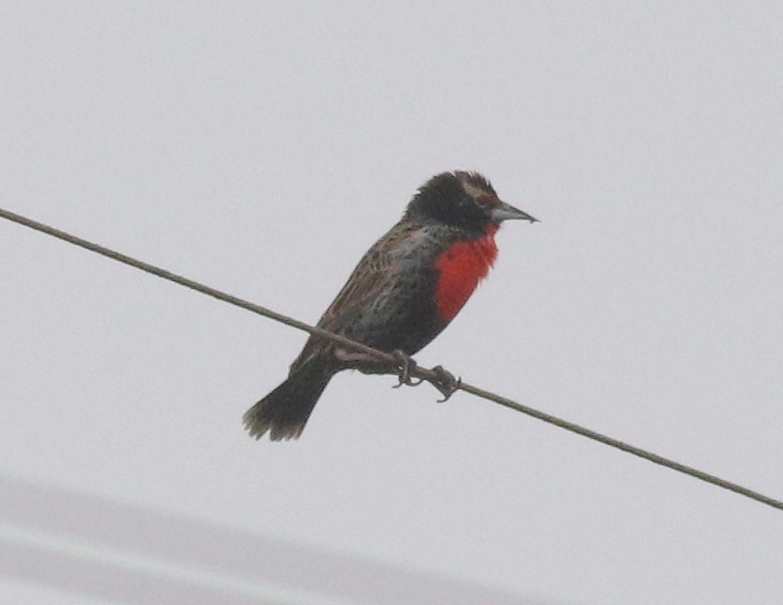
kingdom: Animalia
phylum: Chordata
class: Aves
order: Passeriformes
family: Icteridae
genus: Sturnella
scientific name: Sturnella bellicosa
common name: Peruvian meadowlark
